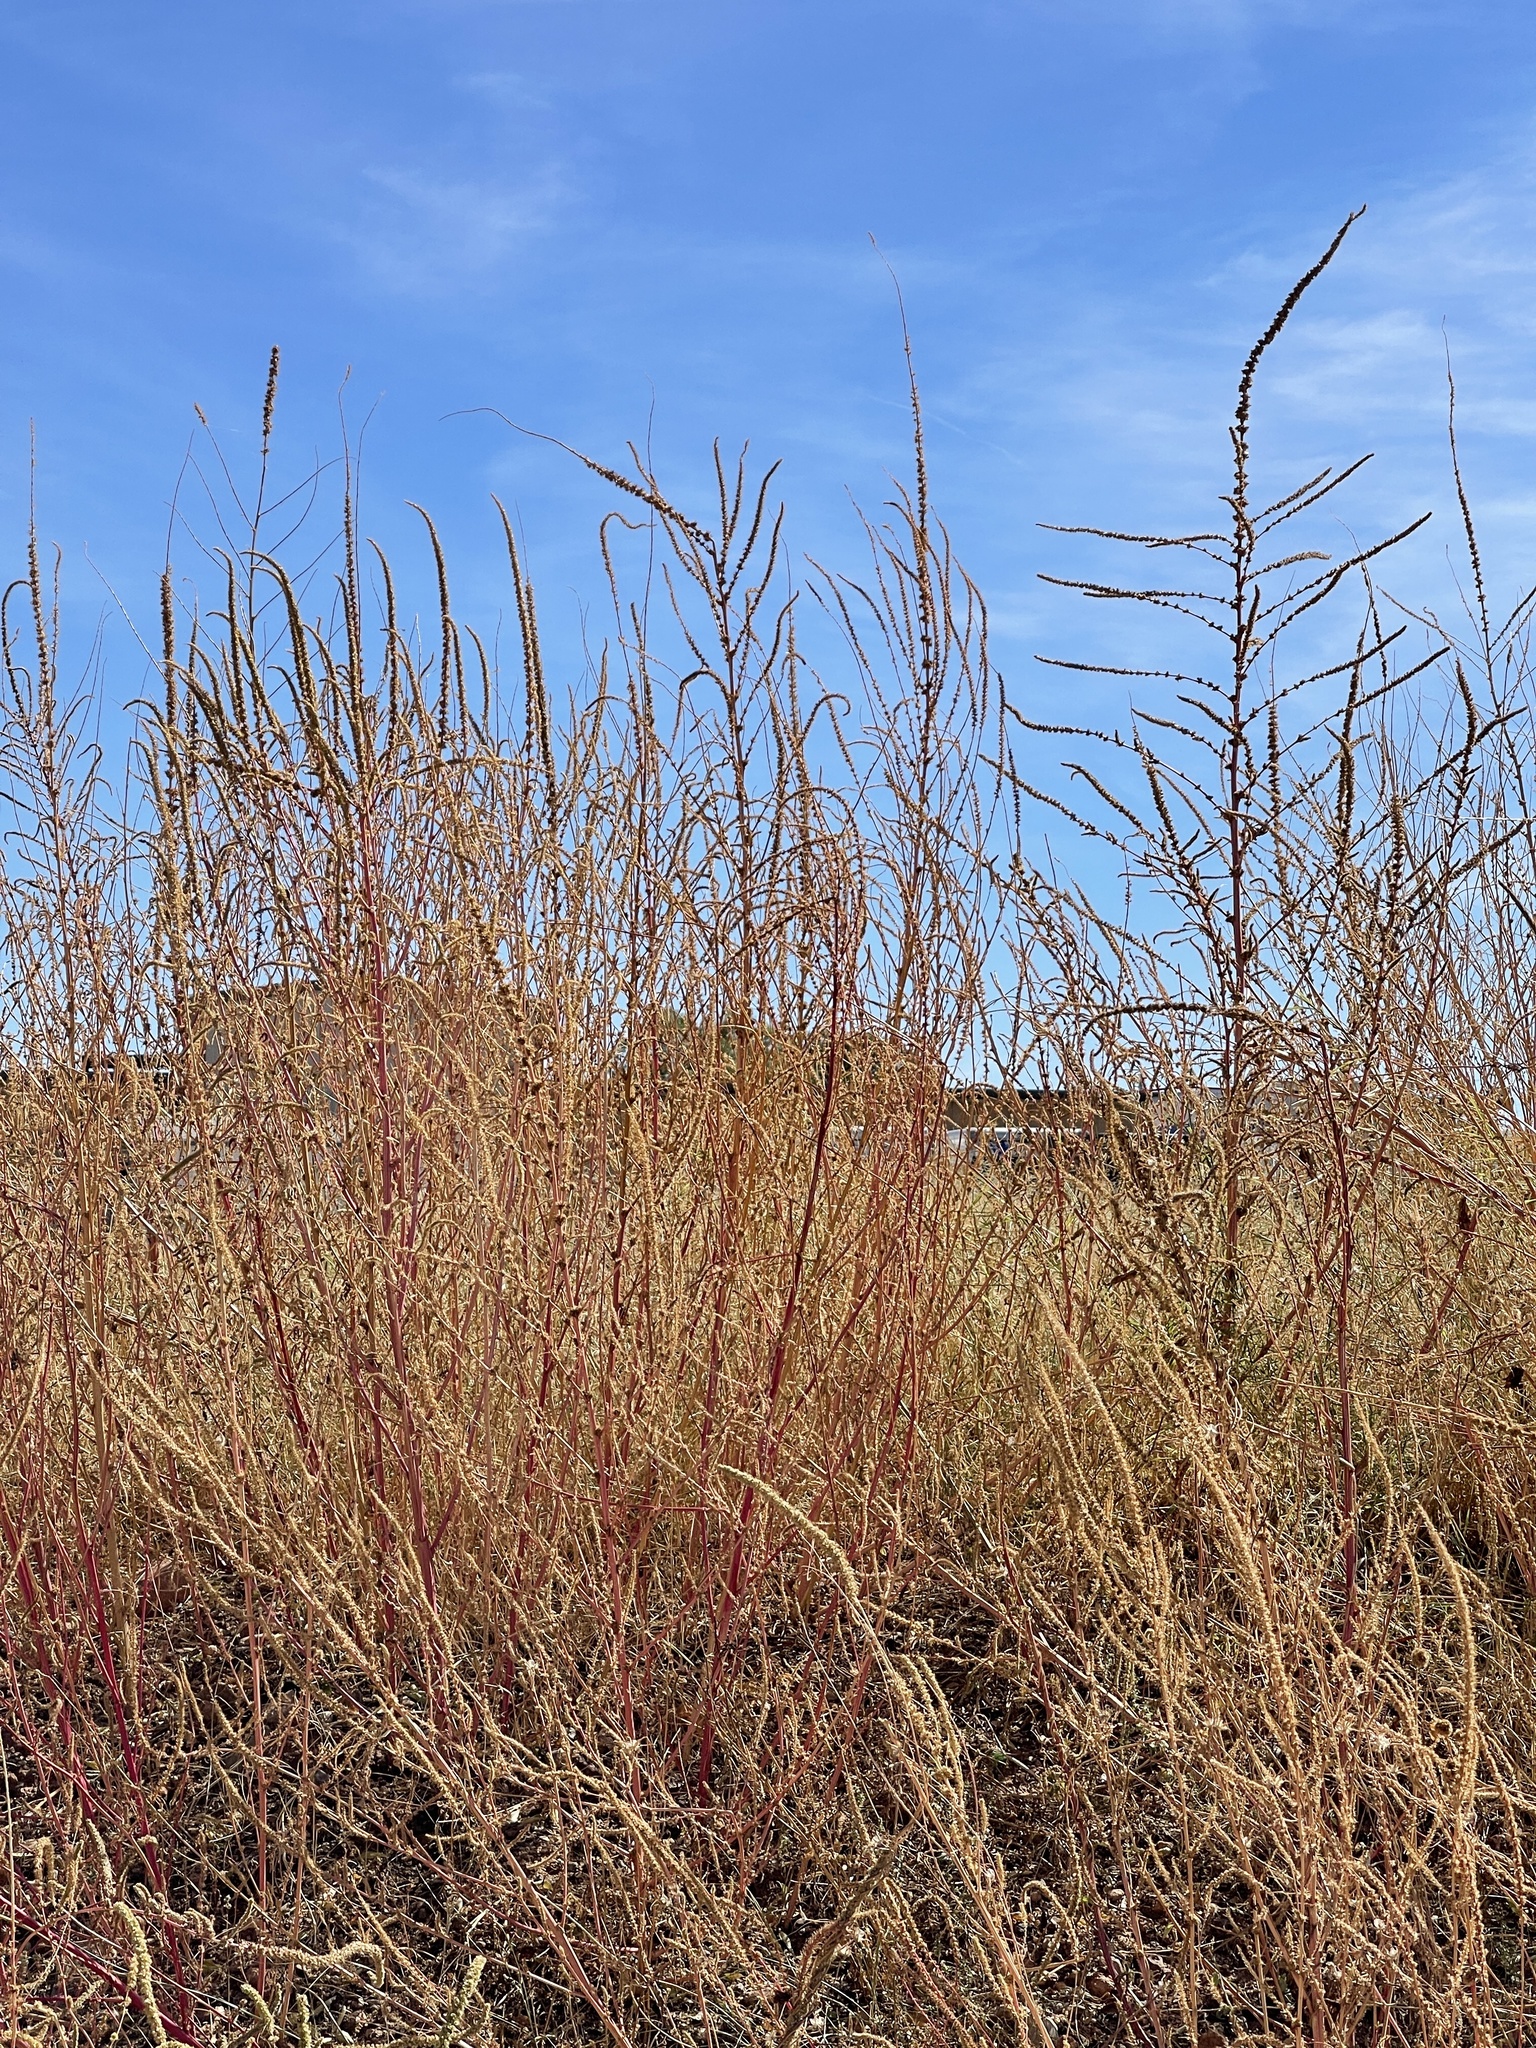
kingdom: Plantae
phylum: Tracheophyta
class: Magnoliopsida
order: Caryophyllales
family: Amaranthaceae
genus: Amaranthus
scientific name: Amaranthus fimbriatus
